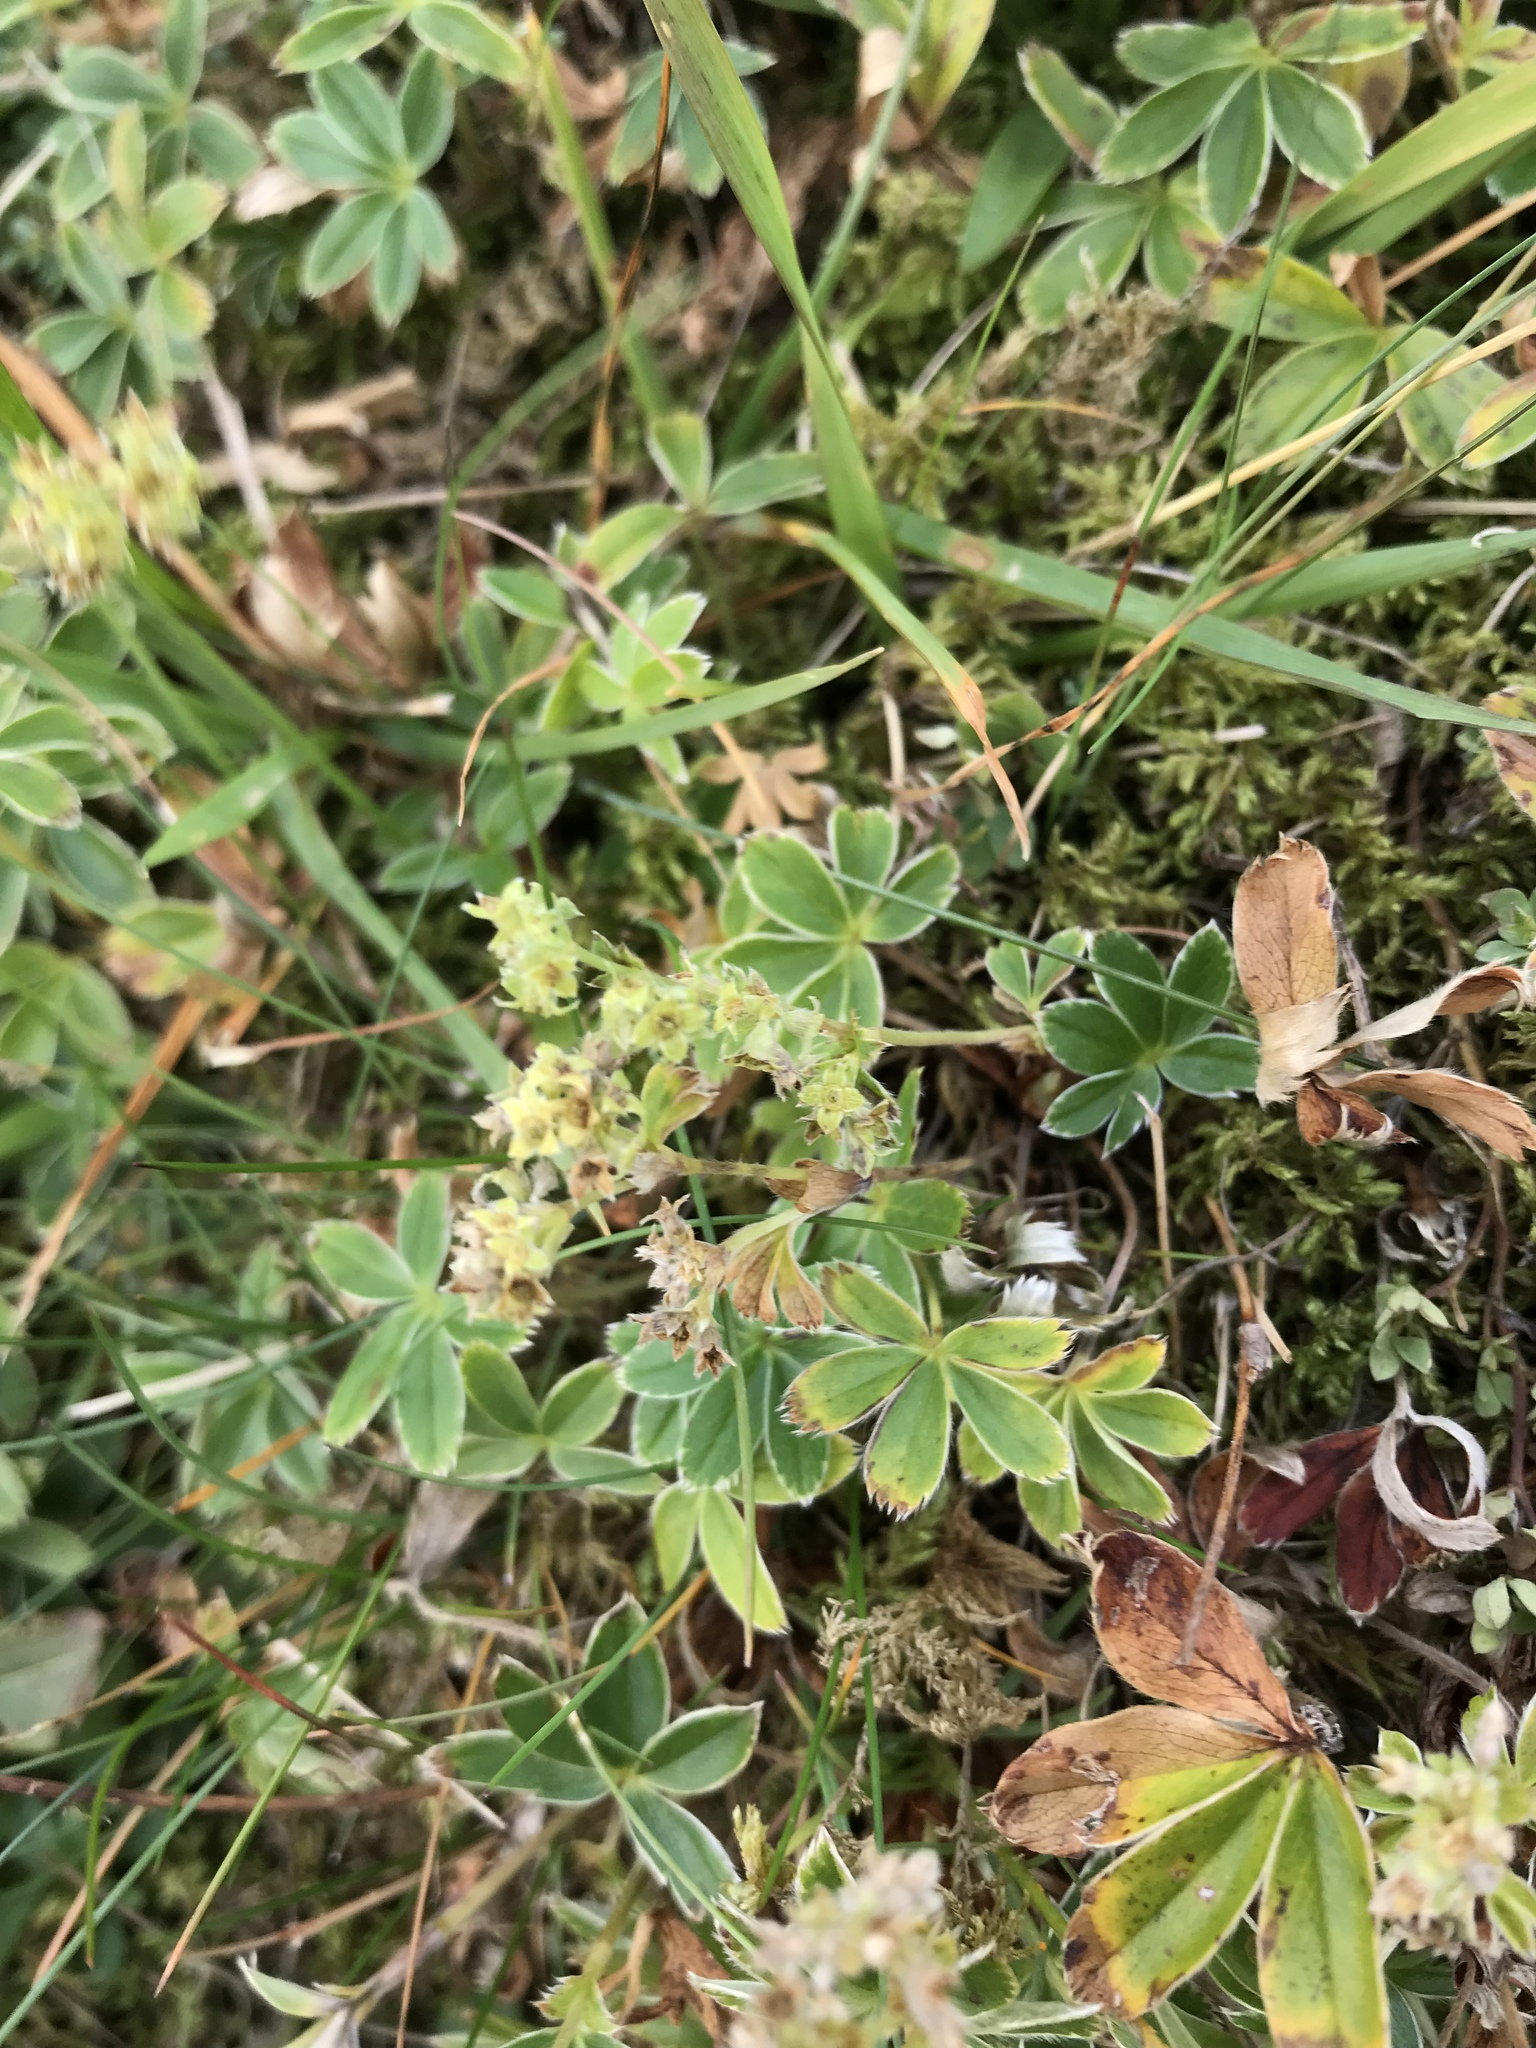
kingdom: Plantae
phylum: Tracheophyta
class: Magnoliopsida
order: Rosales
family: Rosaceae
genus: Alchemilla
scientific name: Alchemilla alpina
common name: Alpine lady's-mantle
